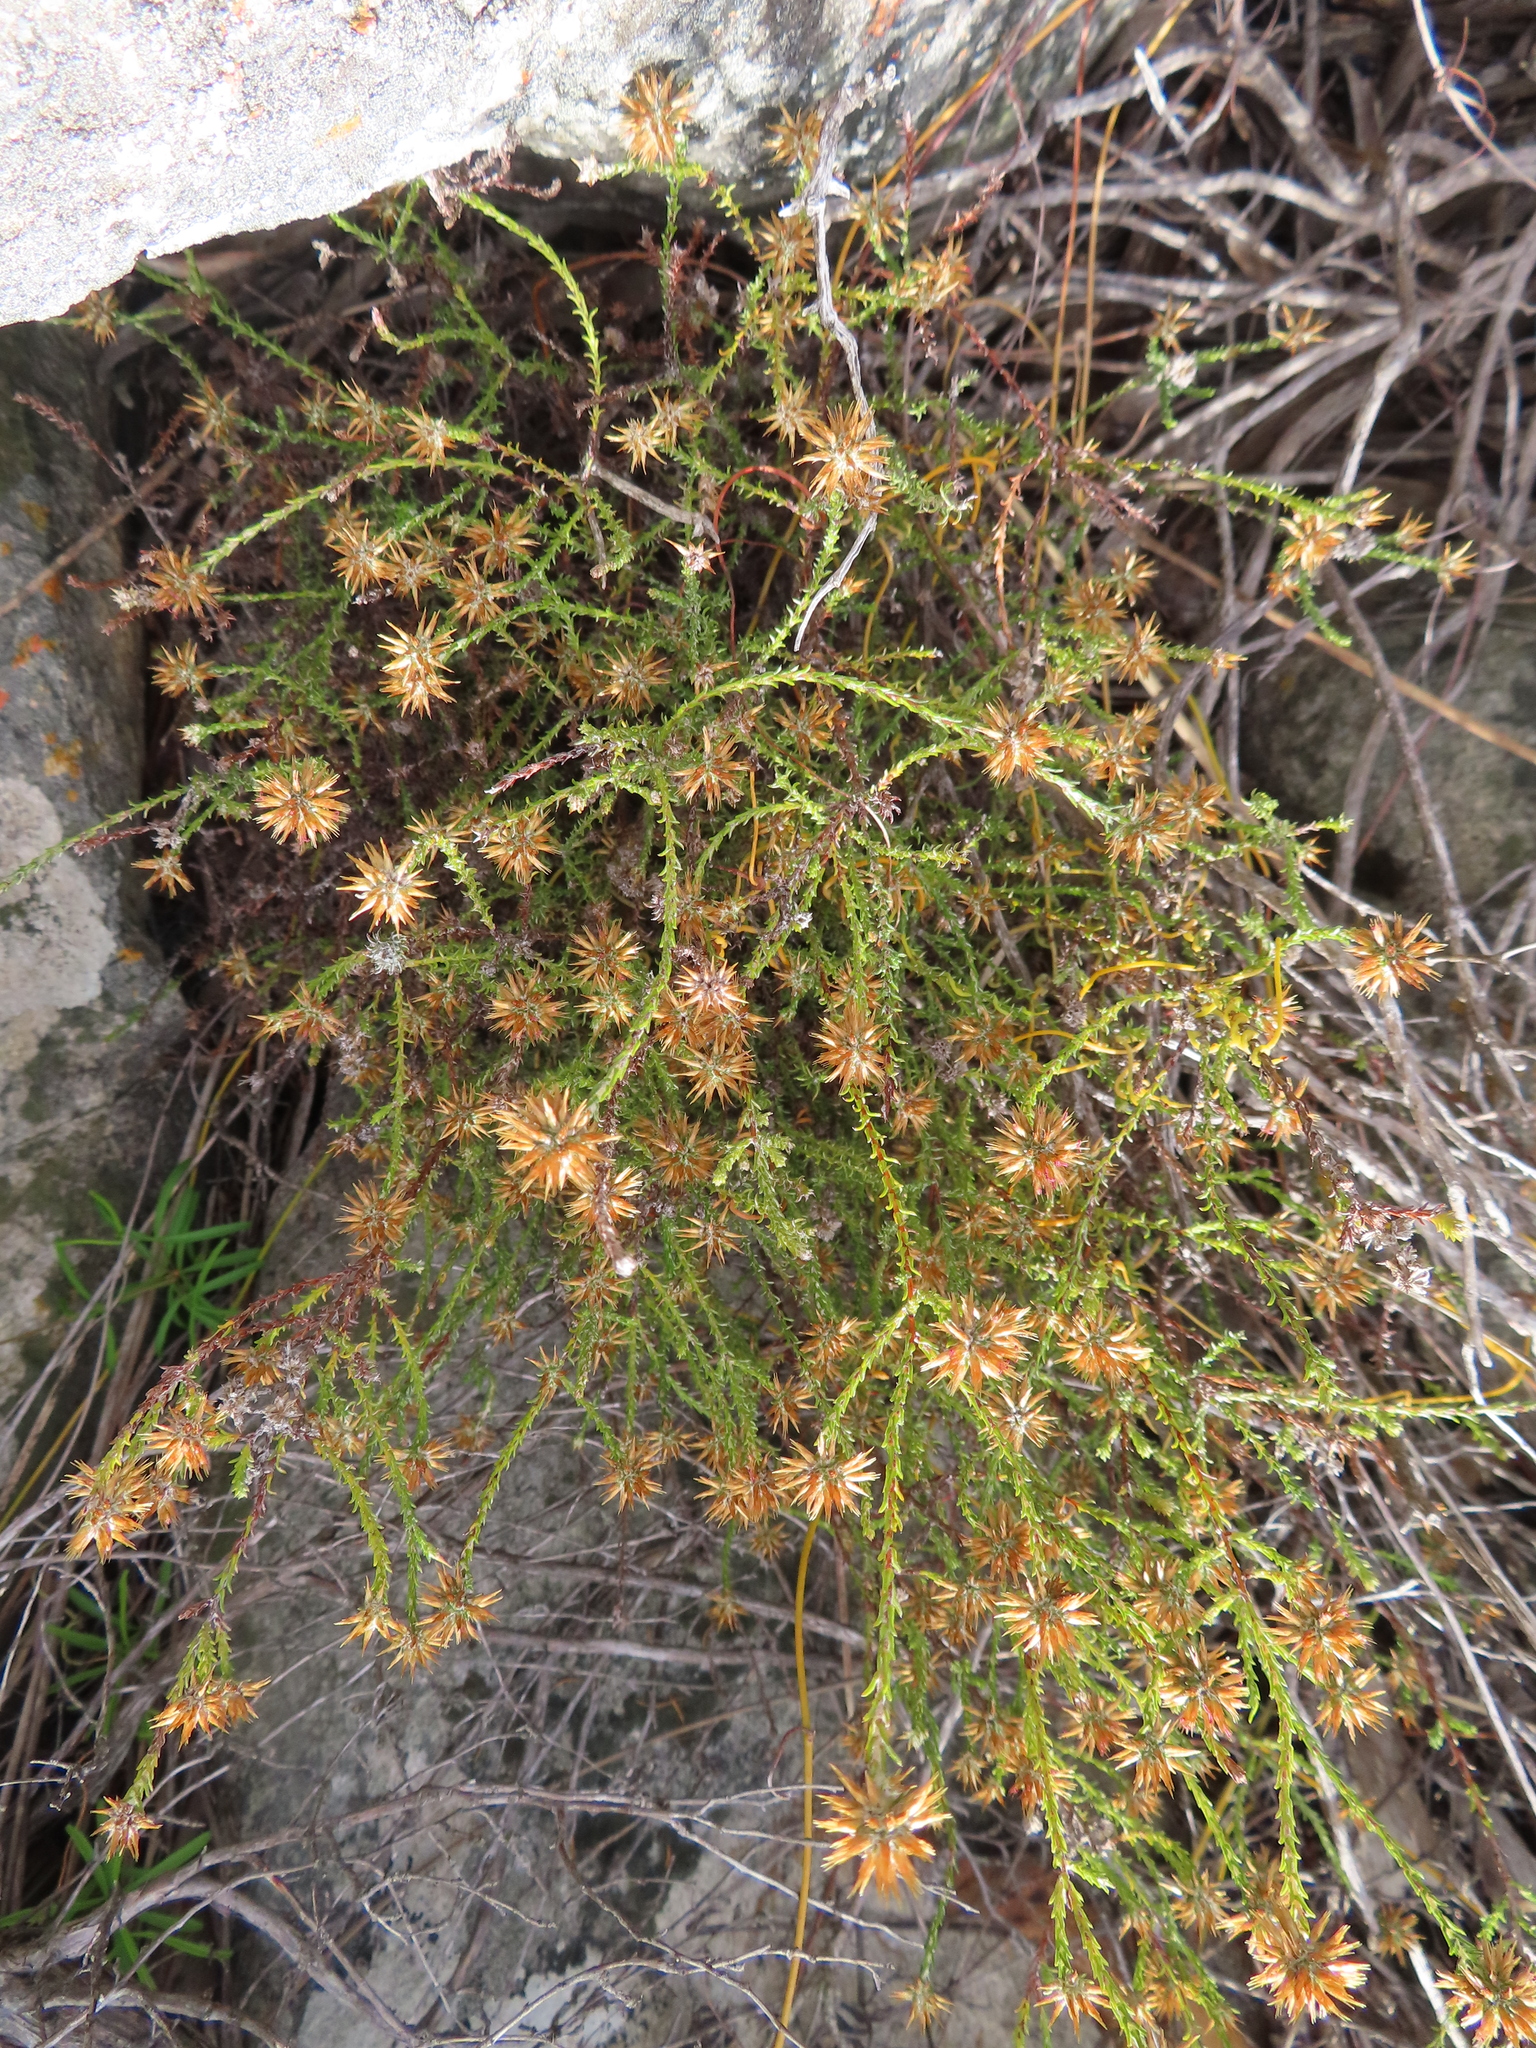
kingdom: Plantae
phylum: Tracheophyta
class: Magnoliopsida
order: Asterales
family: Asteraceae
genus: Seriphium
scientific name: Seriphium spirale
